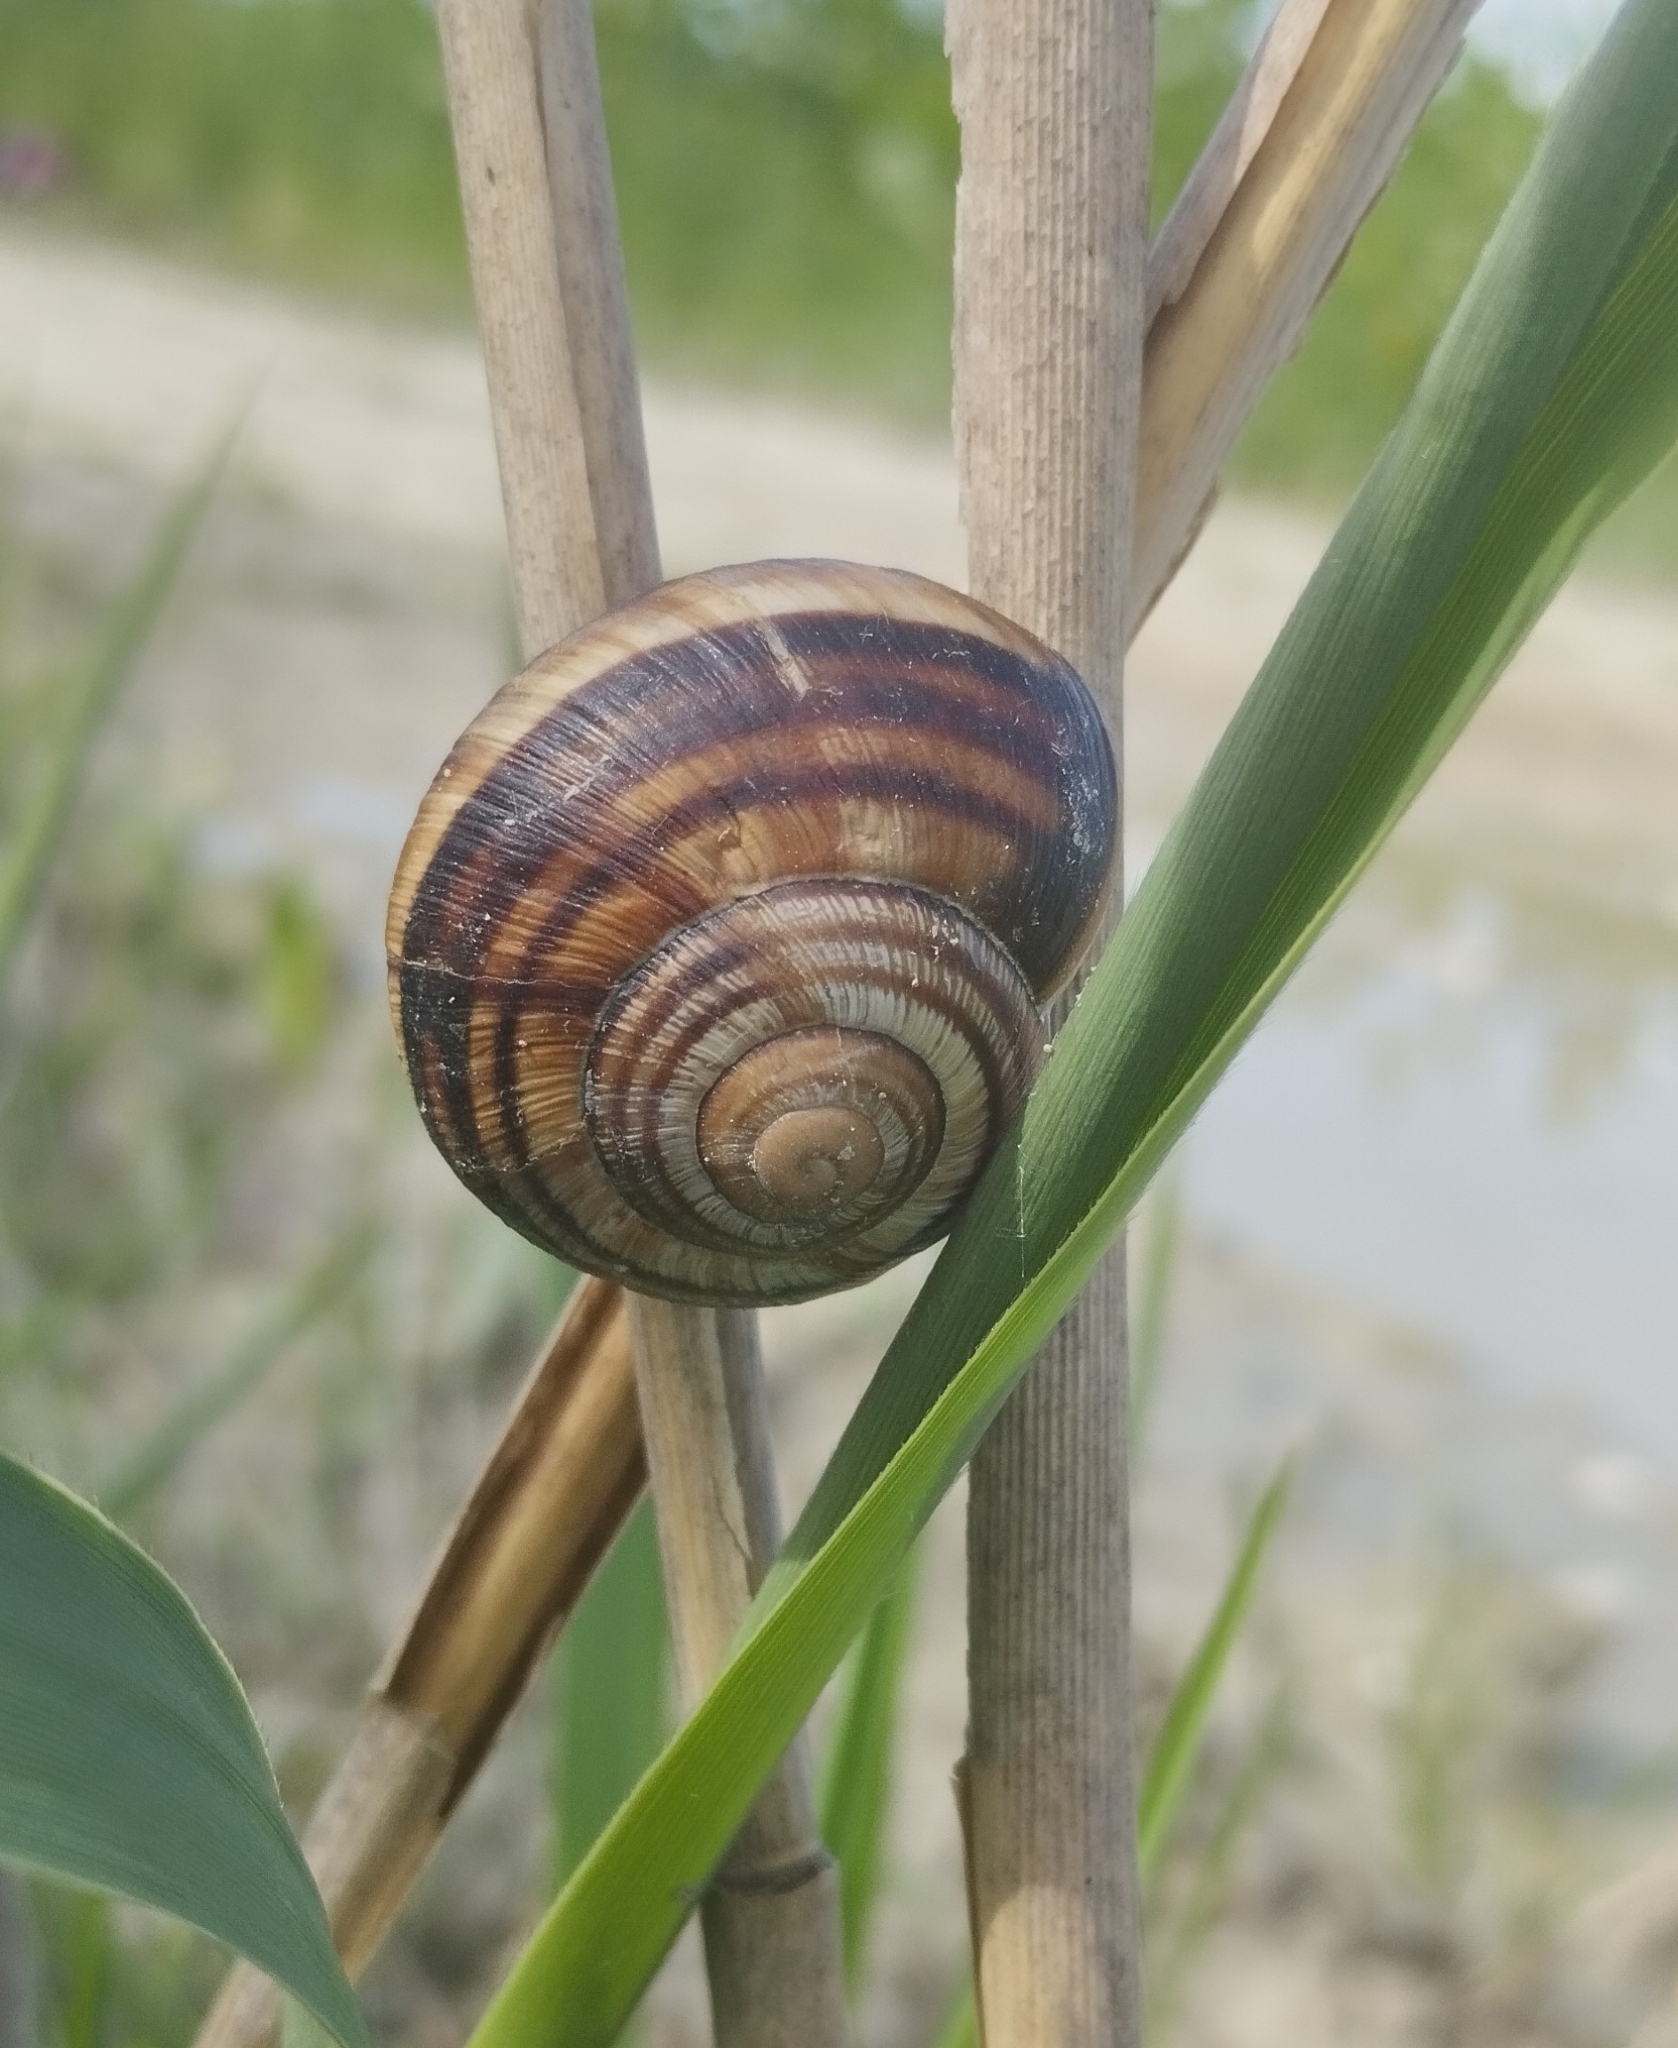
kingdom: Animalia
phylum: Mollusca
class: Gastropoda
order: Stylommatophora
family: Helicidae
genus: Helix
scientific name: Helix lucorum
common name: Turkish snail
